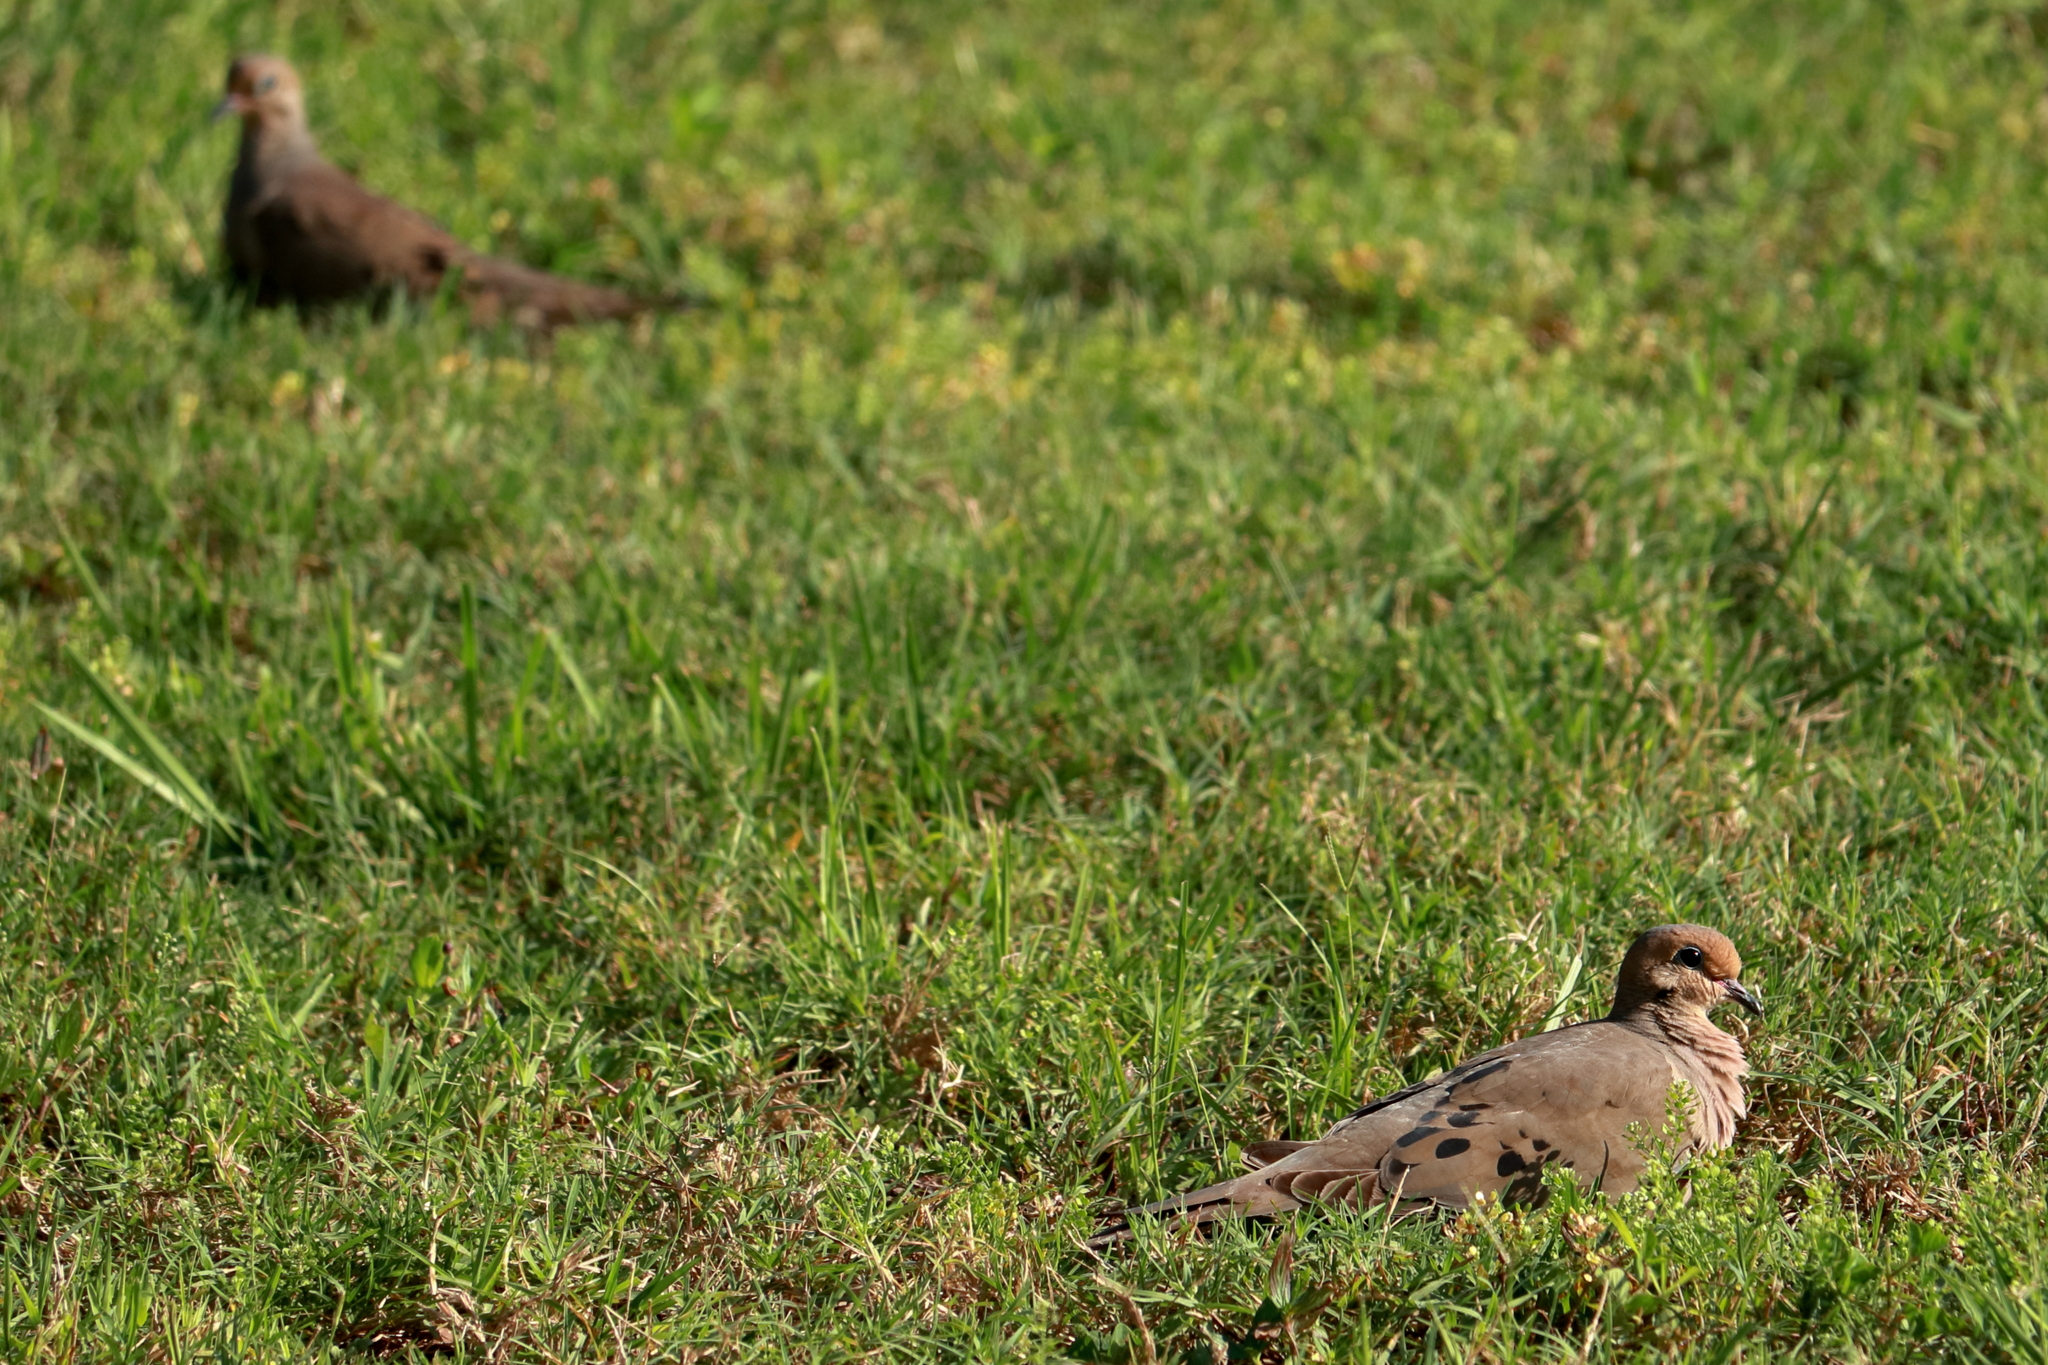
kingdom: Animalia
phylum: Chordata
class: Aves
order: Columbiformes
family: Columbidae
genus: Zenaida
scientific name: Zenaida macroura
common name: Mourning dove
